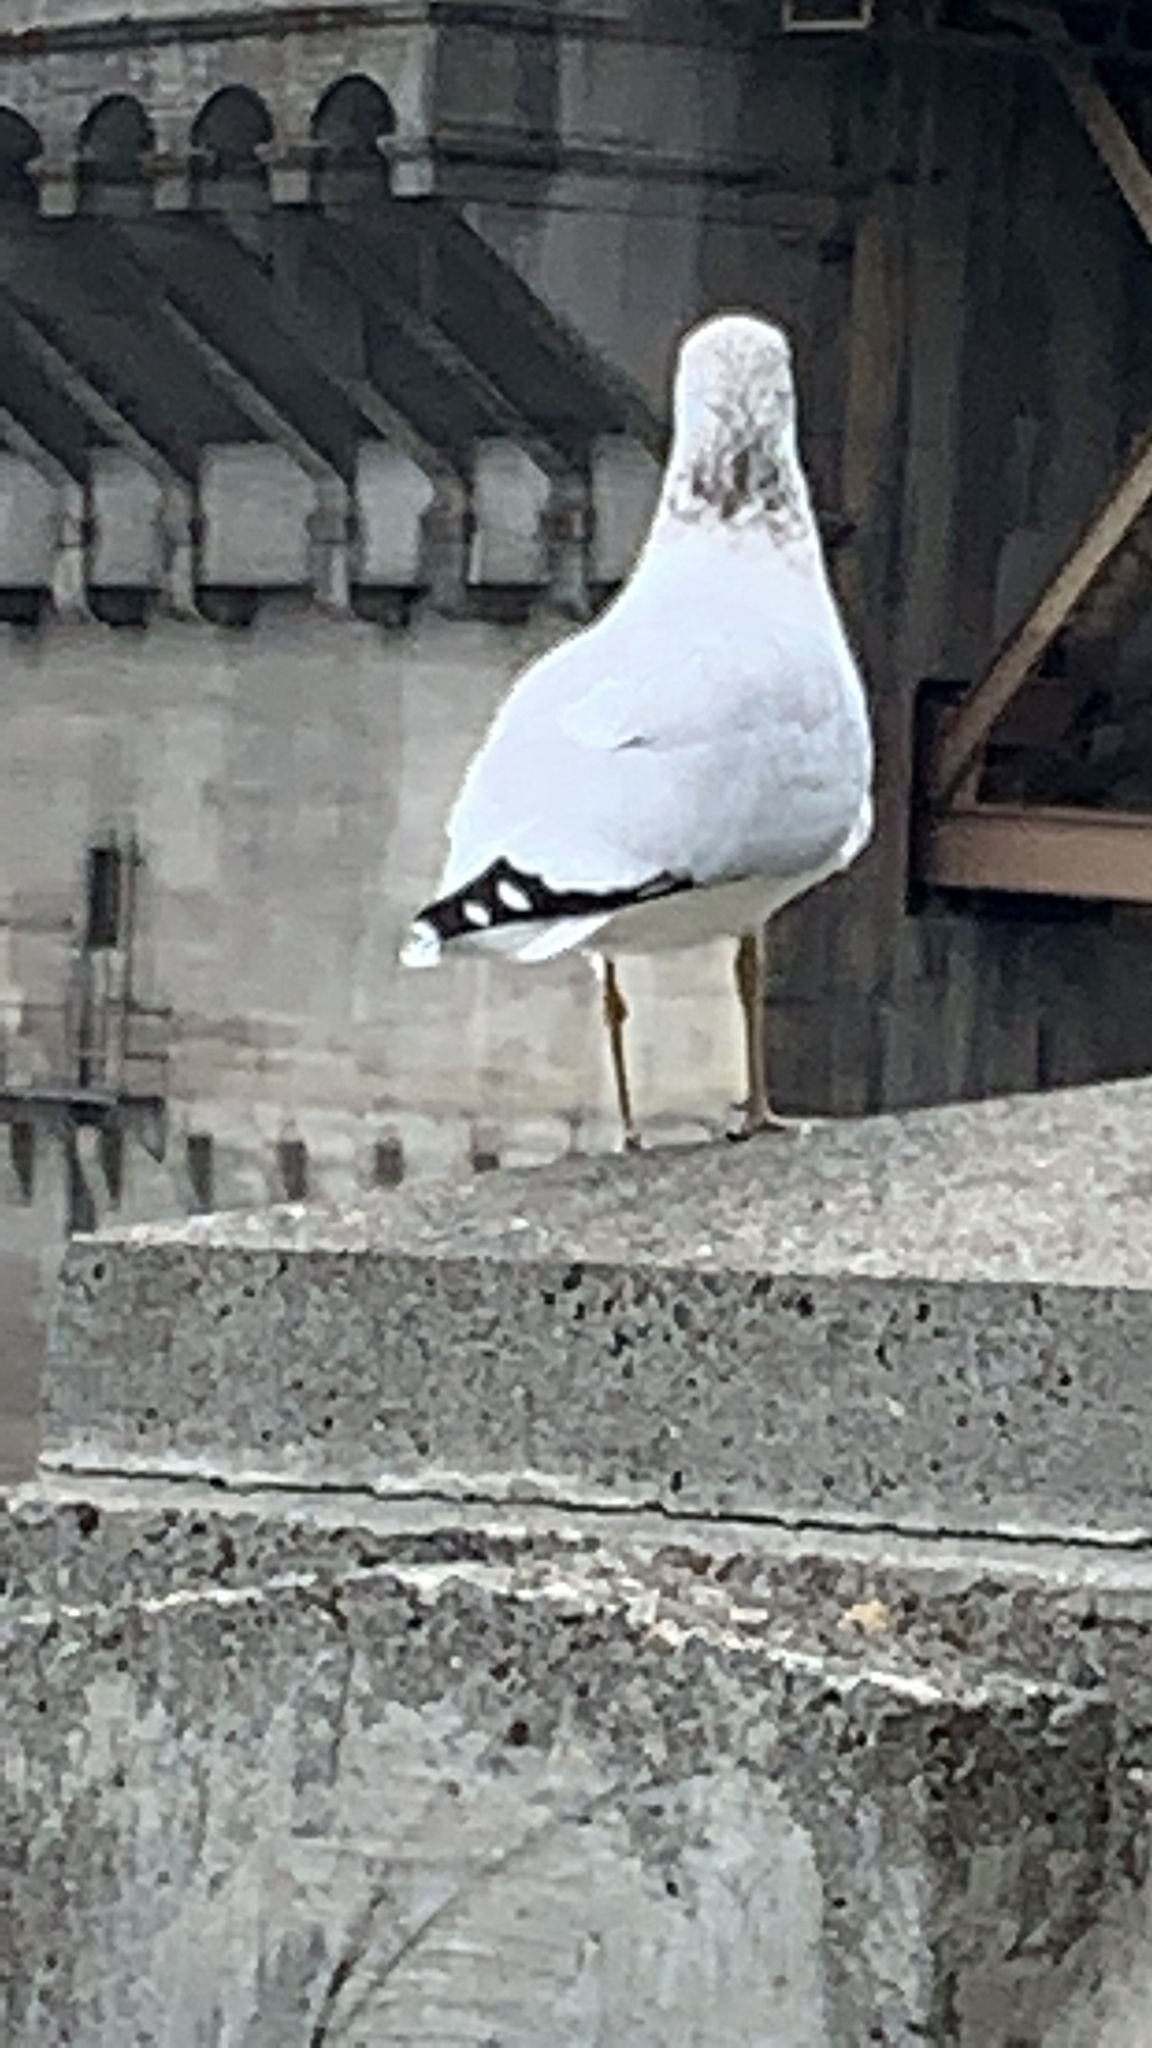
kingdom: Animalia
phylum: Chordata
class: Aves
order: Charadriiformes
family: Laridae
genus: Larus
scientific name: Larus delawarensis
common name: Ring-billed gull
